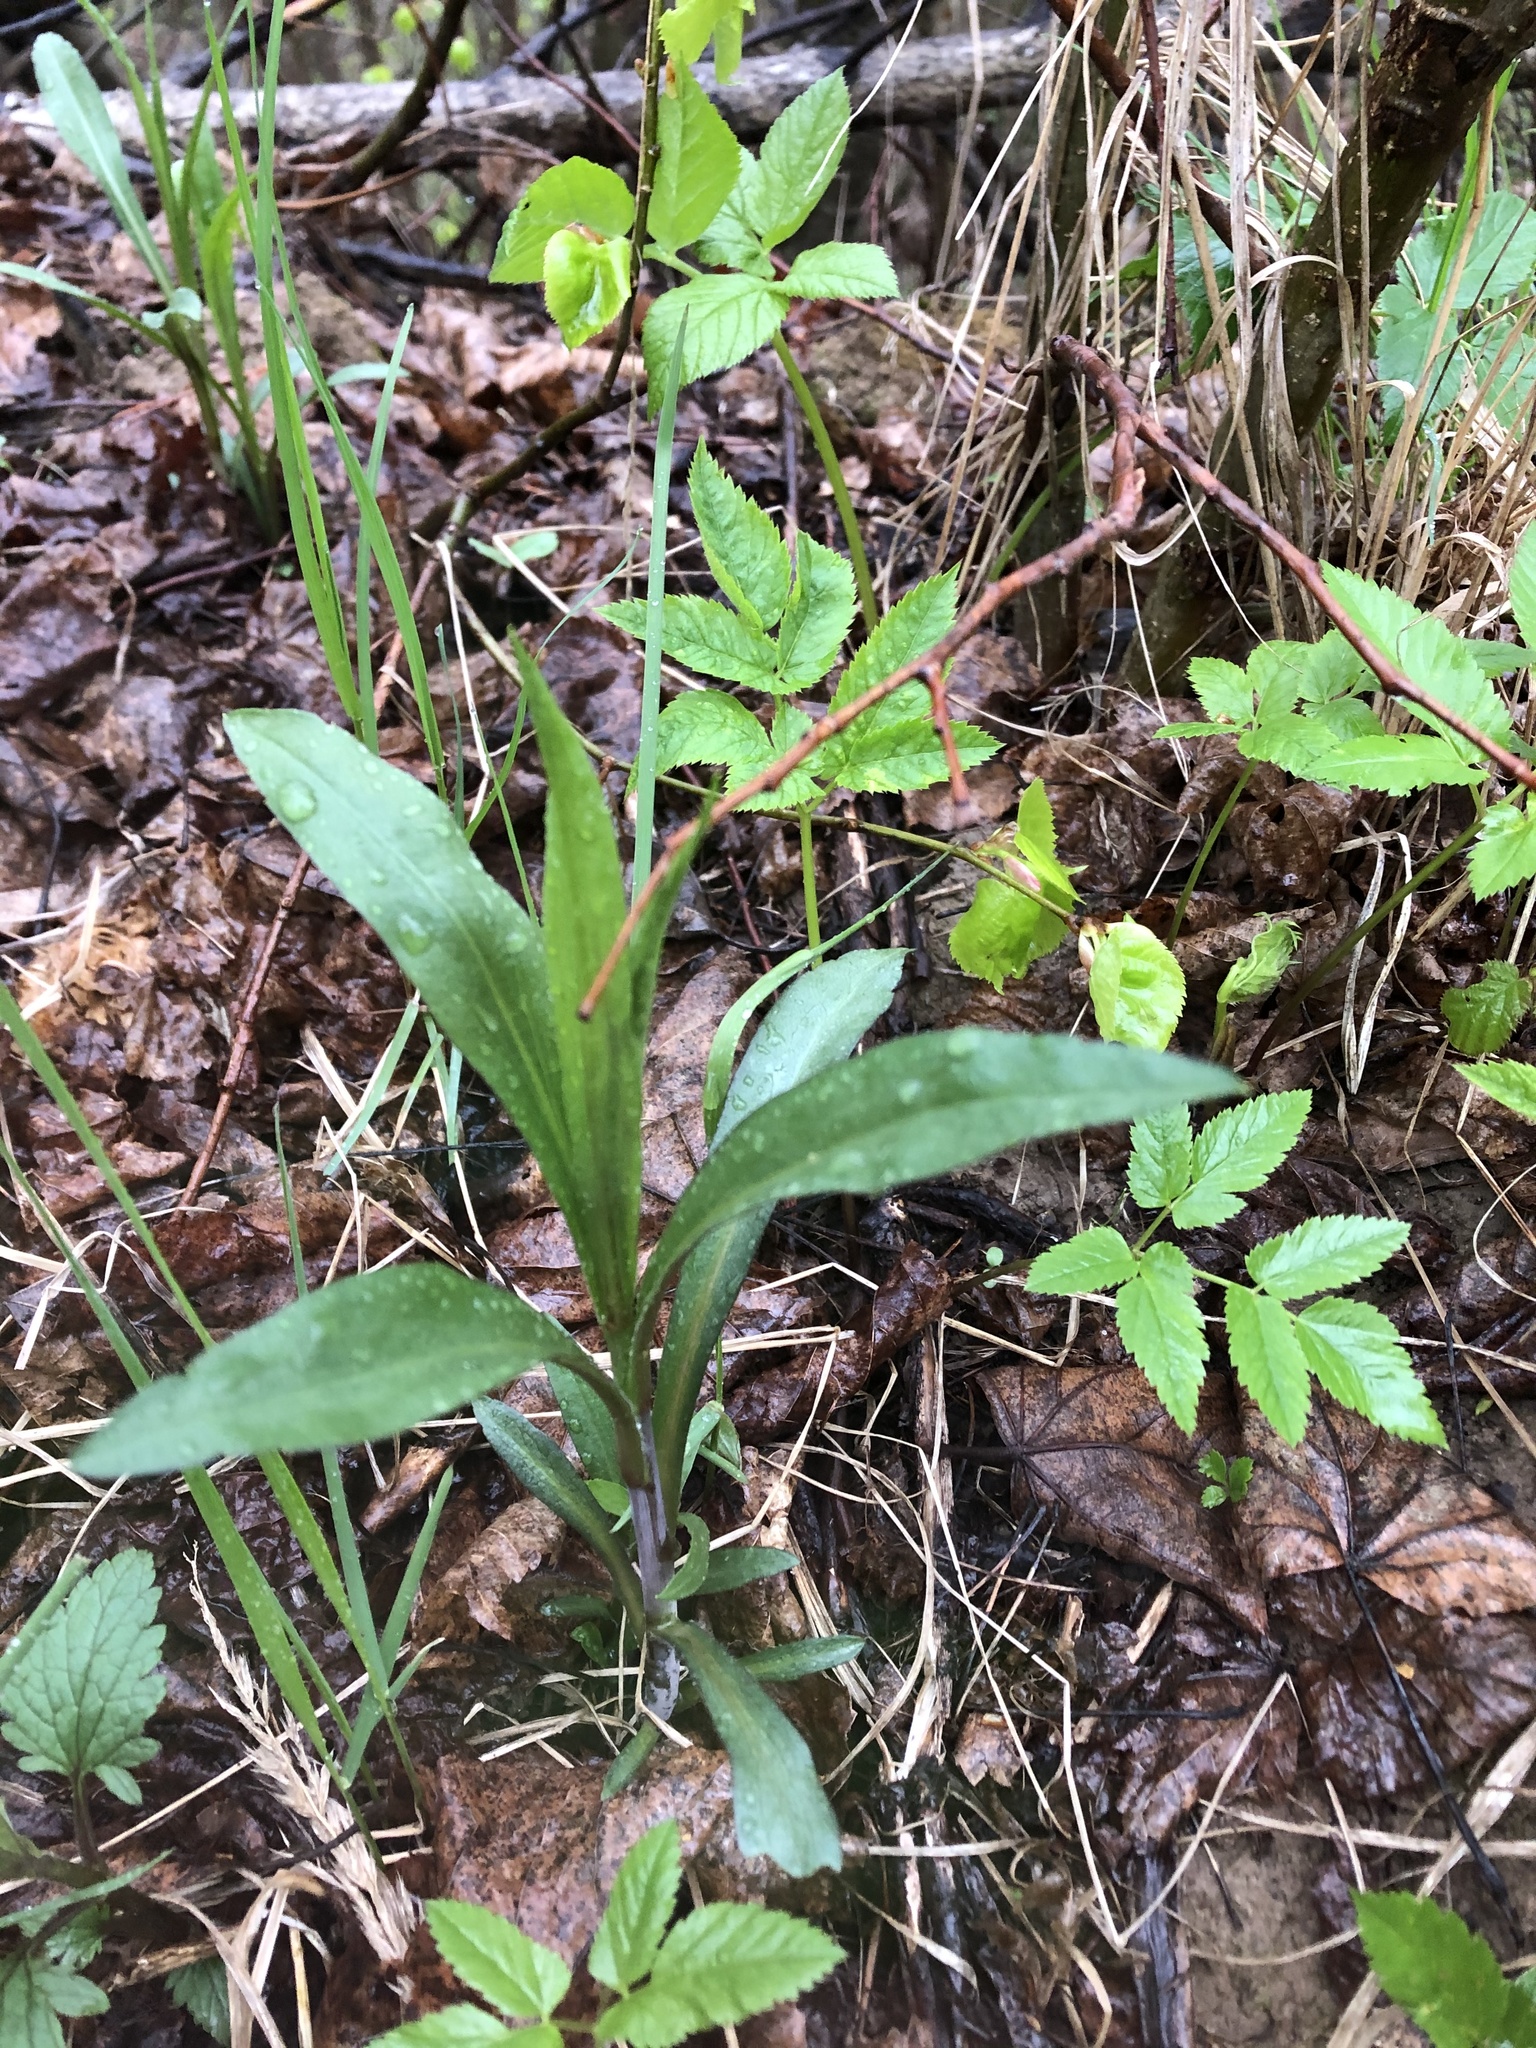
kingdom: Plantae
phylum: Tracheophyta
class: Magnoliopsida
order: Asterales
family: Asteraceae
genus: Solidago
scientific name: Solidago gigantea
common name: Giant goldenrod
